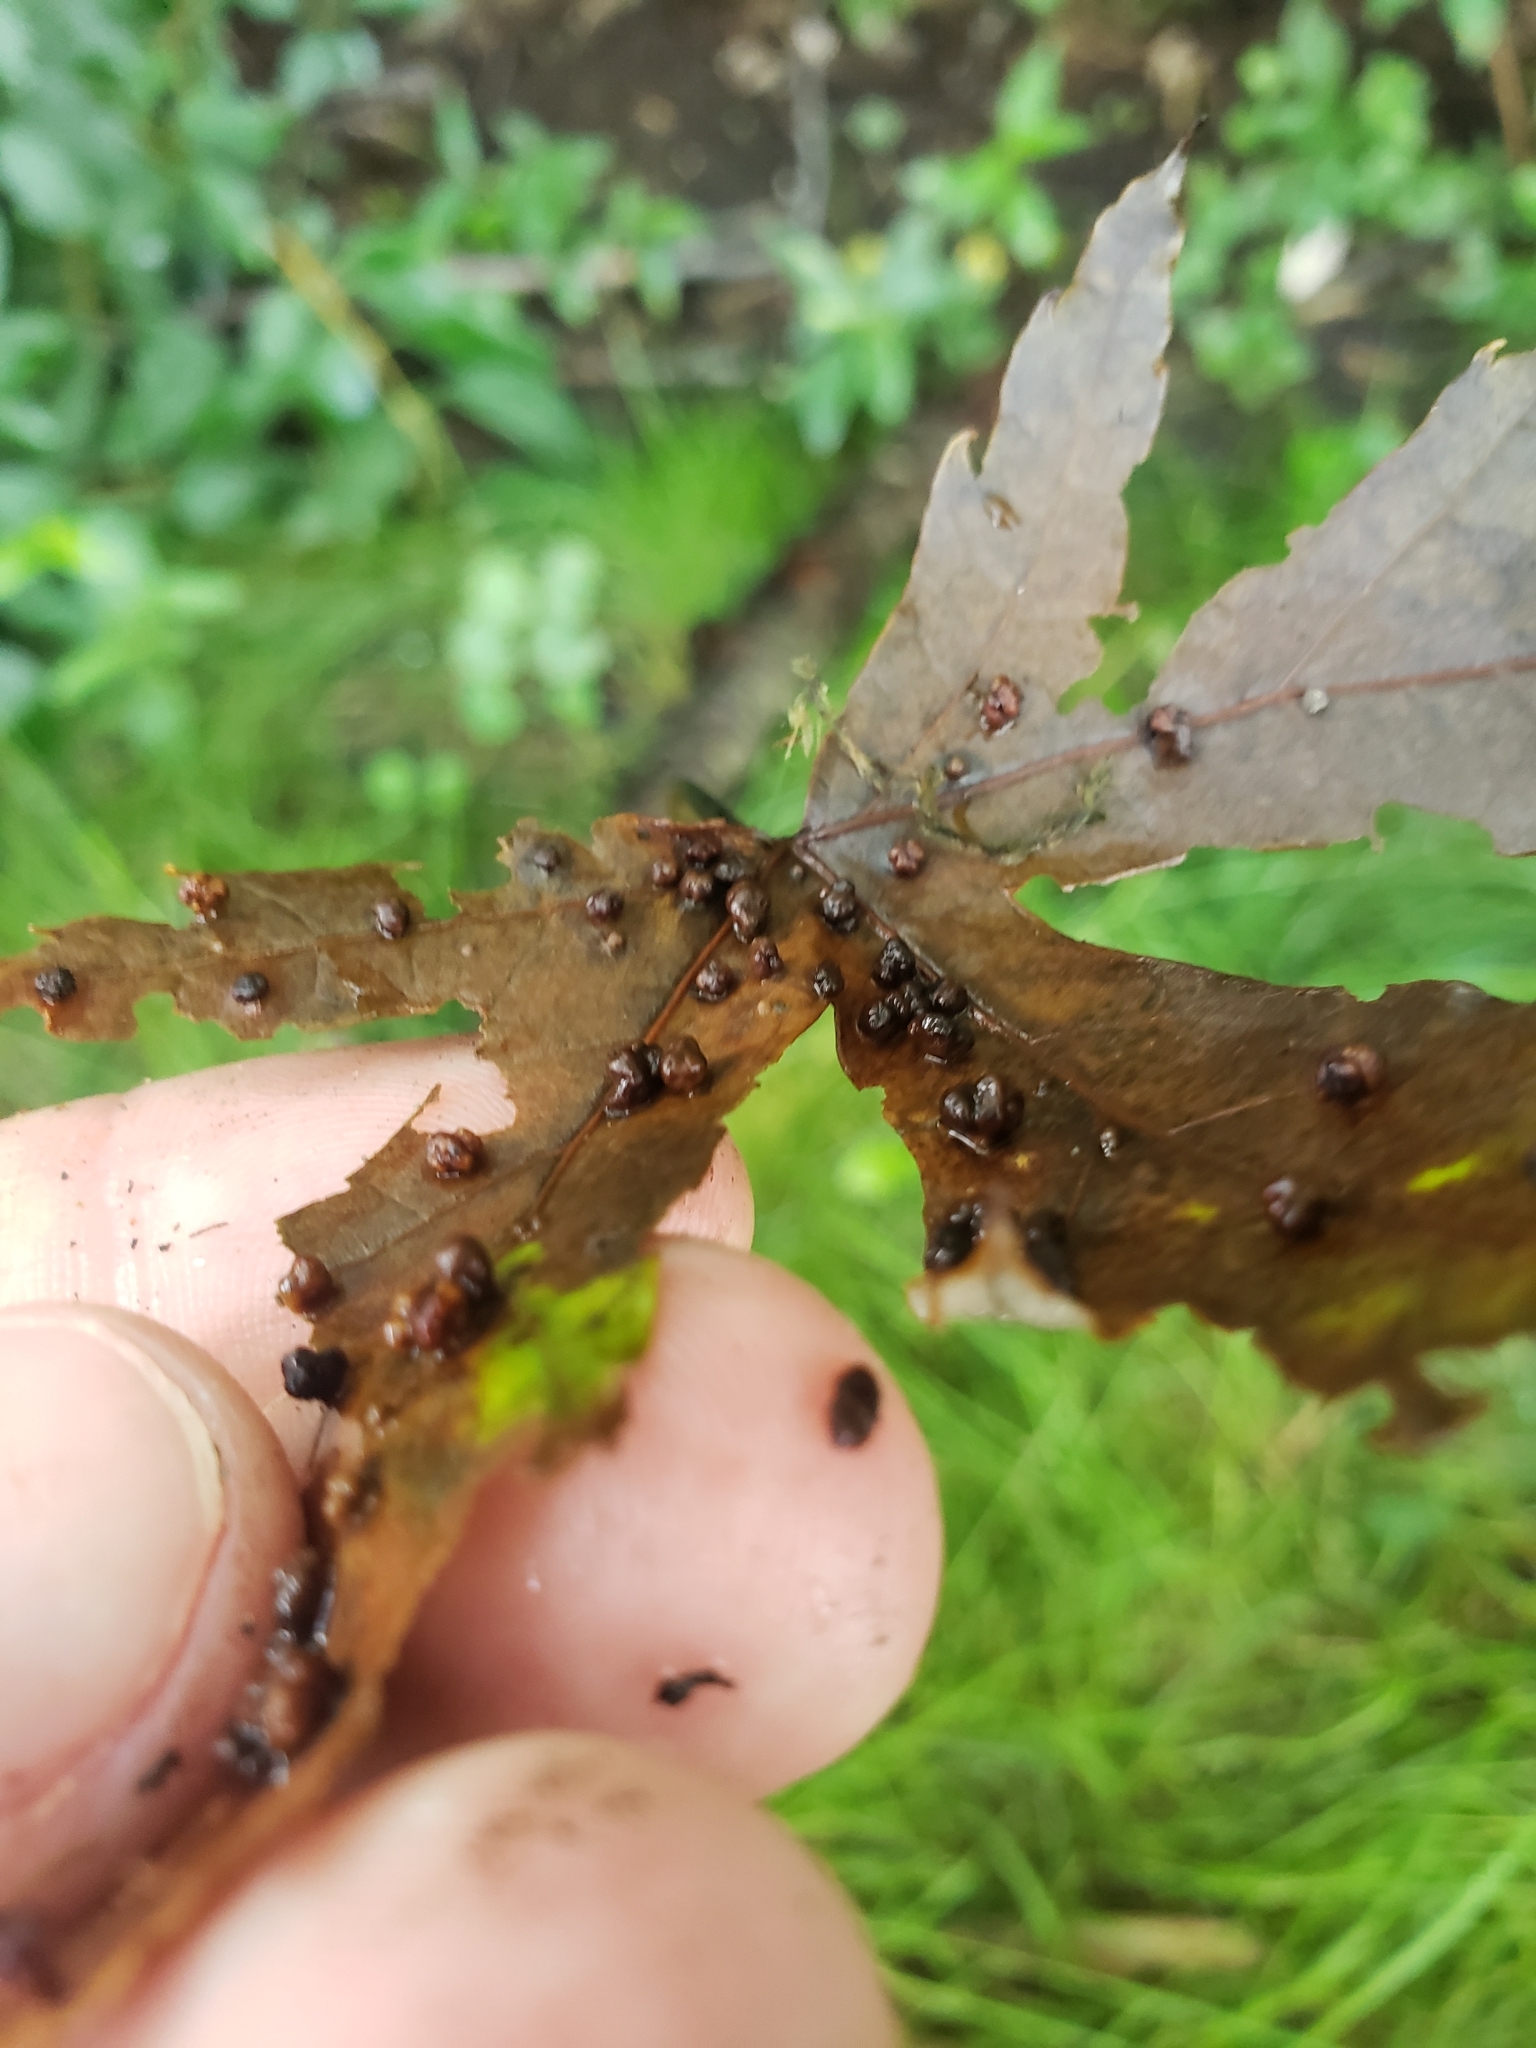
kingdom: Animalia
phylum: Arthropoda
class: Arachnida
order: Trombidiformes
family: Eriophyidae
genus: Vasates
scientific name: Vasates quadripedes
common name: Maple bladder gall mite
